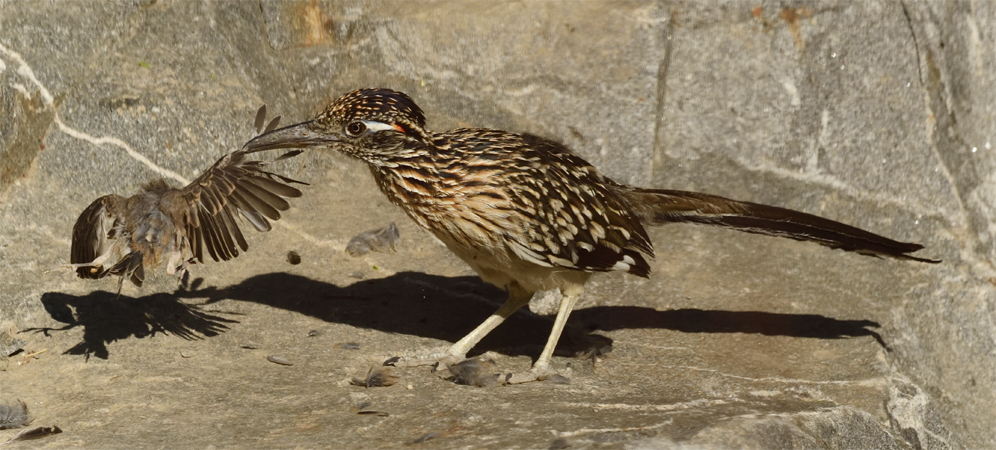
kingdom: Animalia
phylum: Chordata
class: Aves
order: Cuculiformes
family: Cuculidae
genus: Geococcyx
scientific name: Geococcyx californianus
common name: Greater roadrunner
